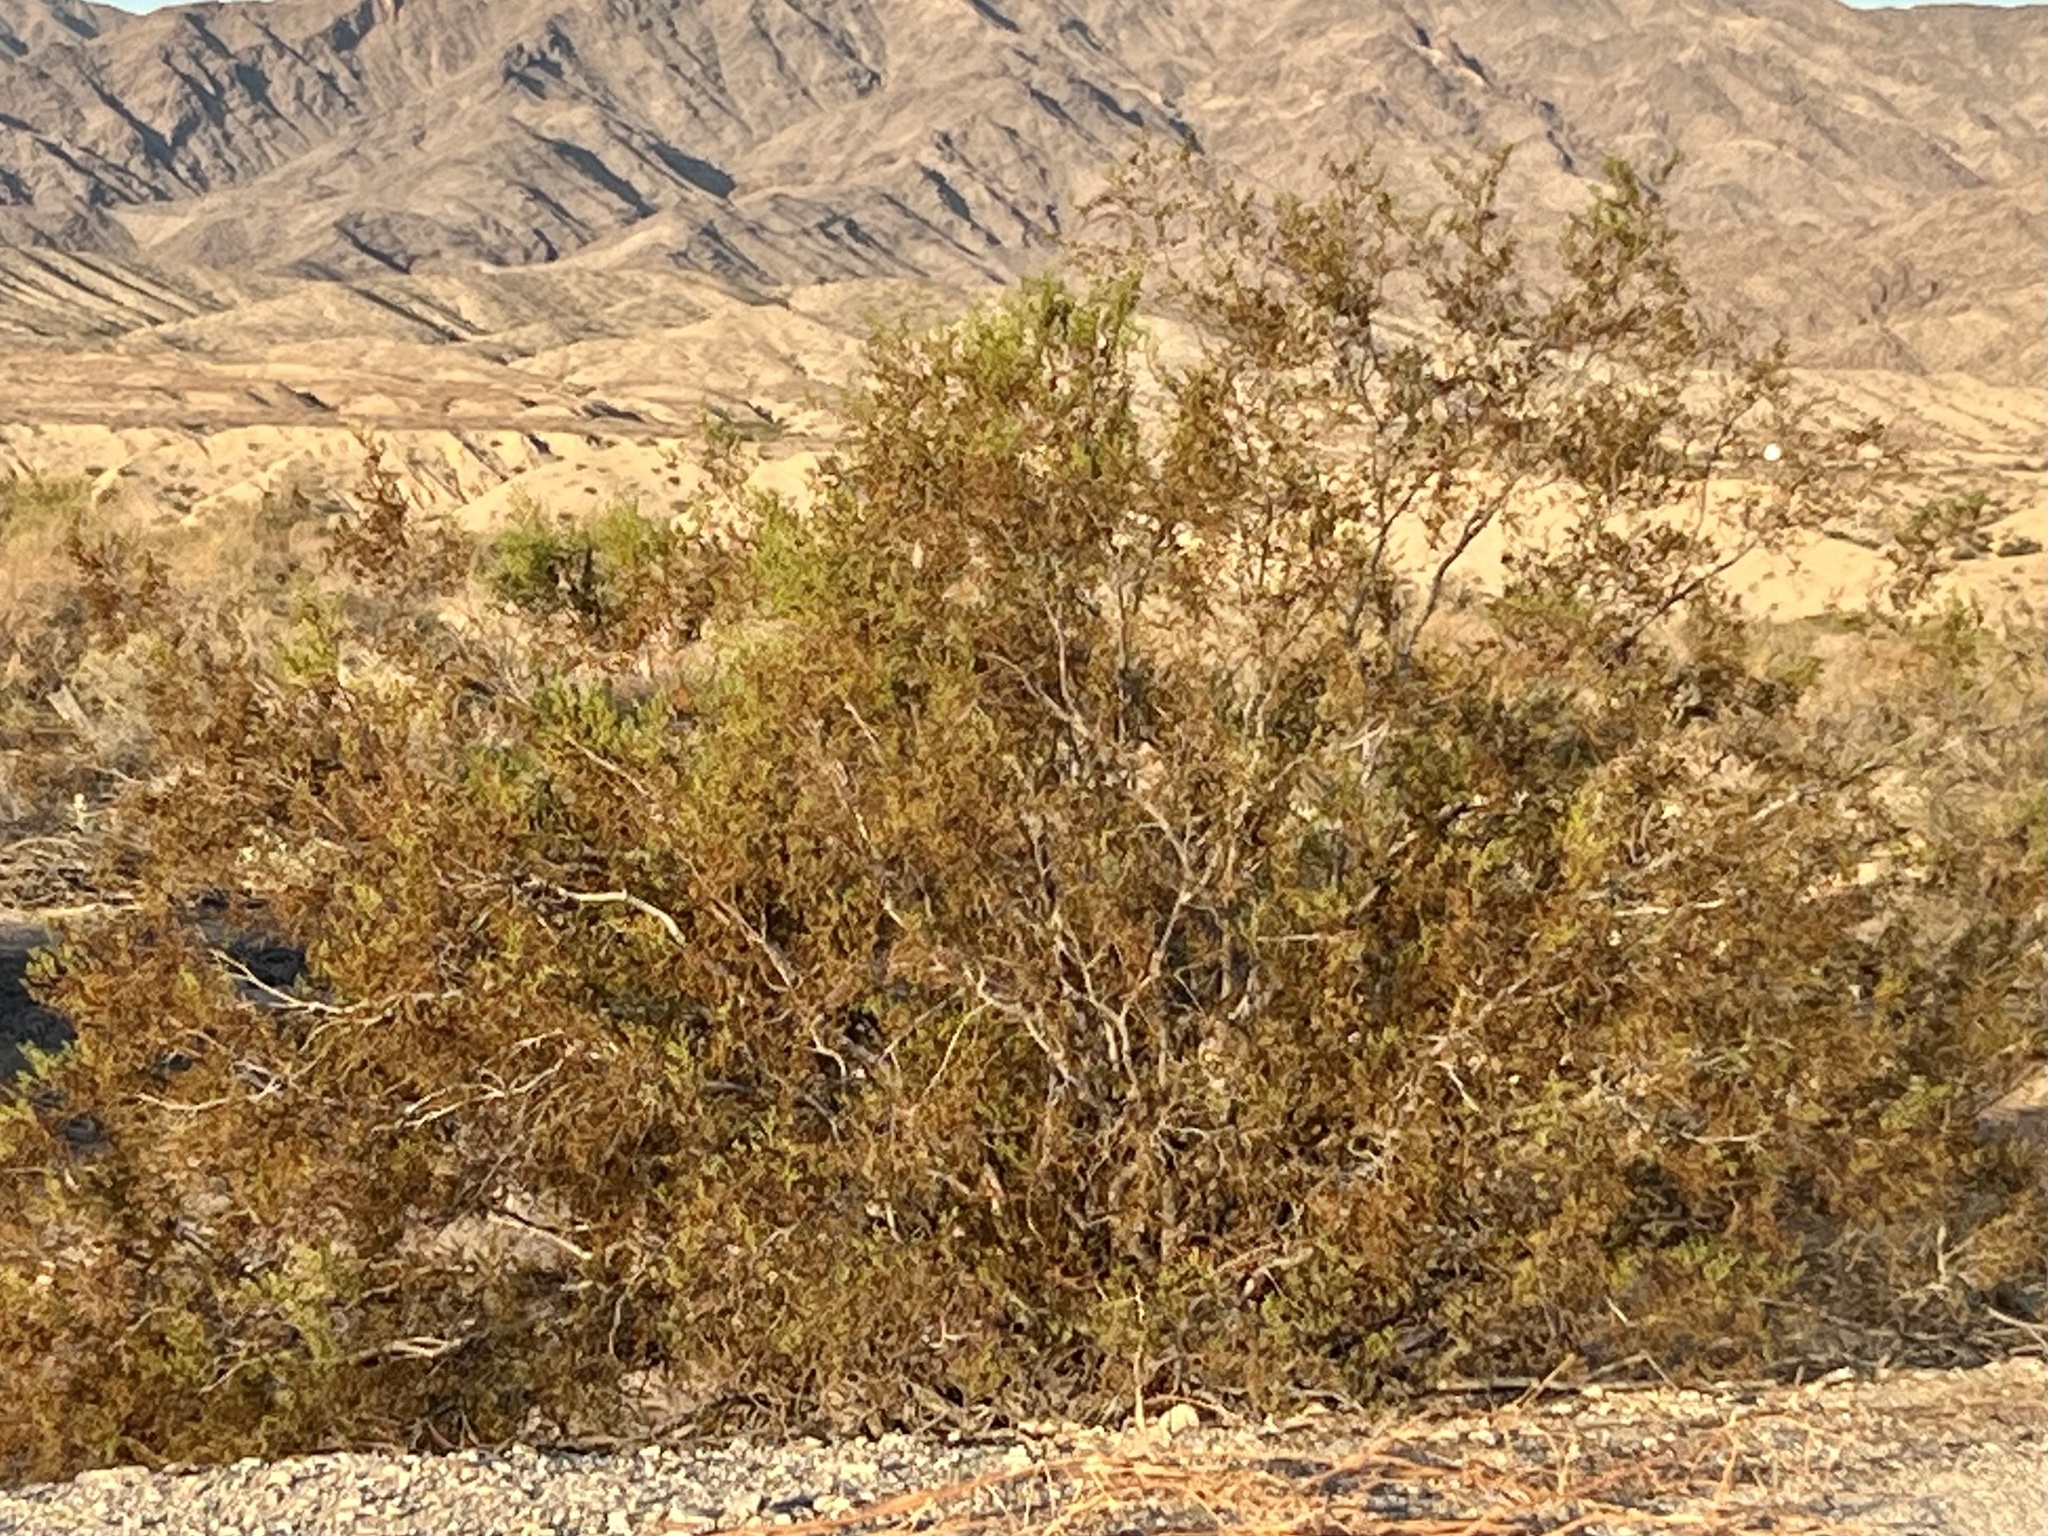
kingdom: Plantae
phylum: Tracheophyta
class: Magnoliopsida
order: Zygophyllales
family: Zygophyllaceae
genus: Larrea
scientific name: Larrea tridentata
